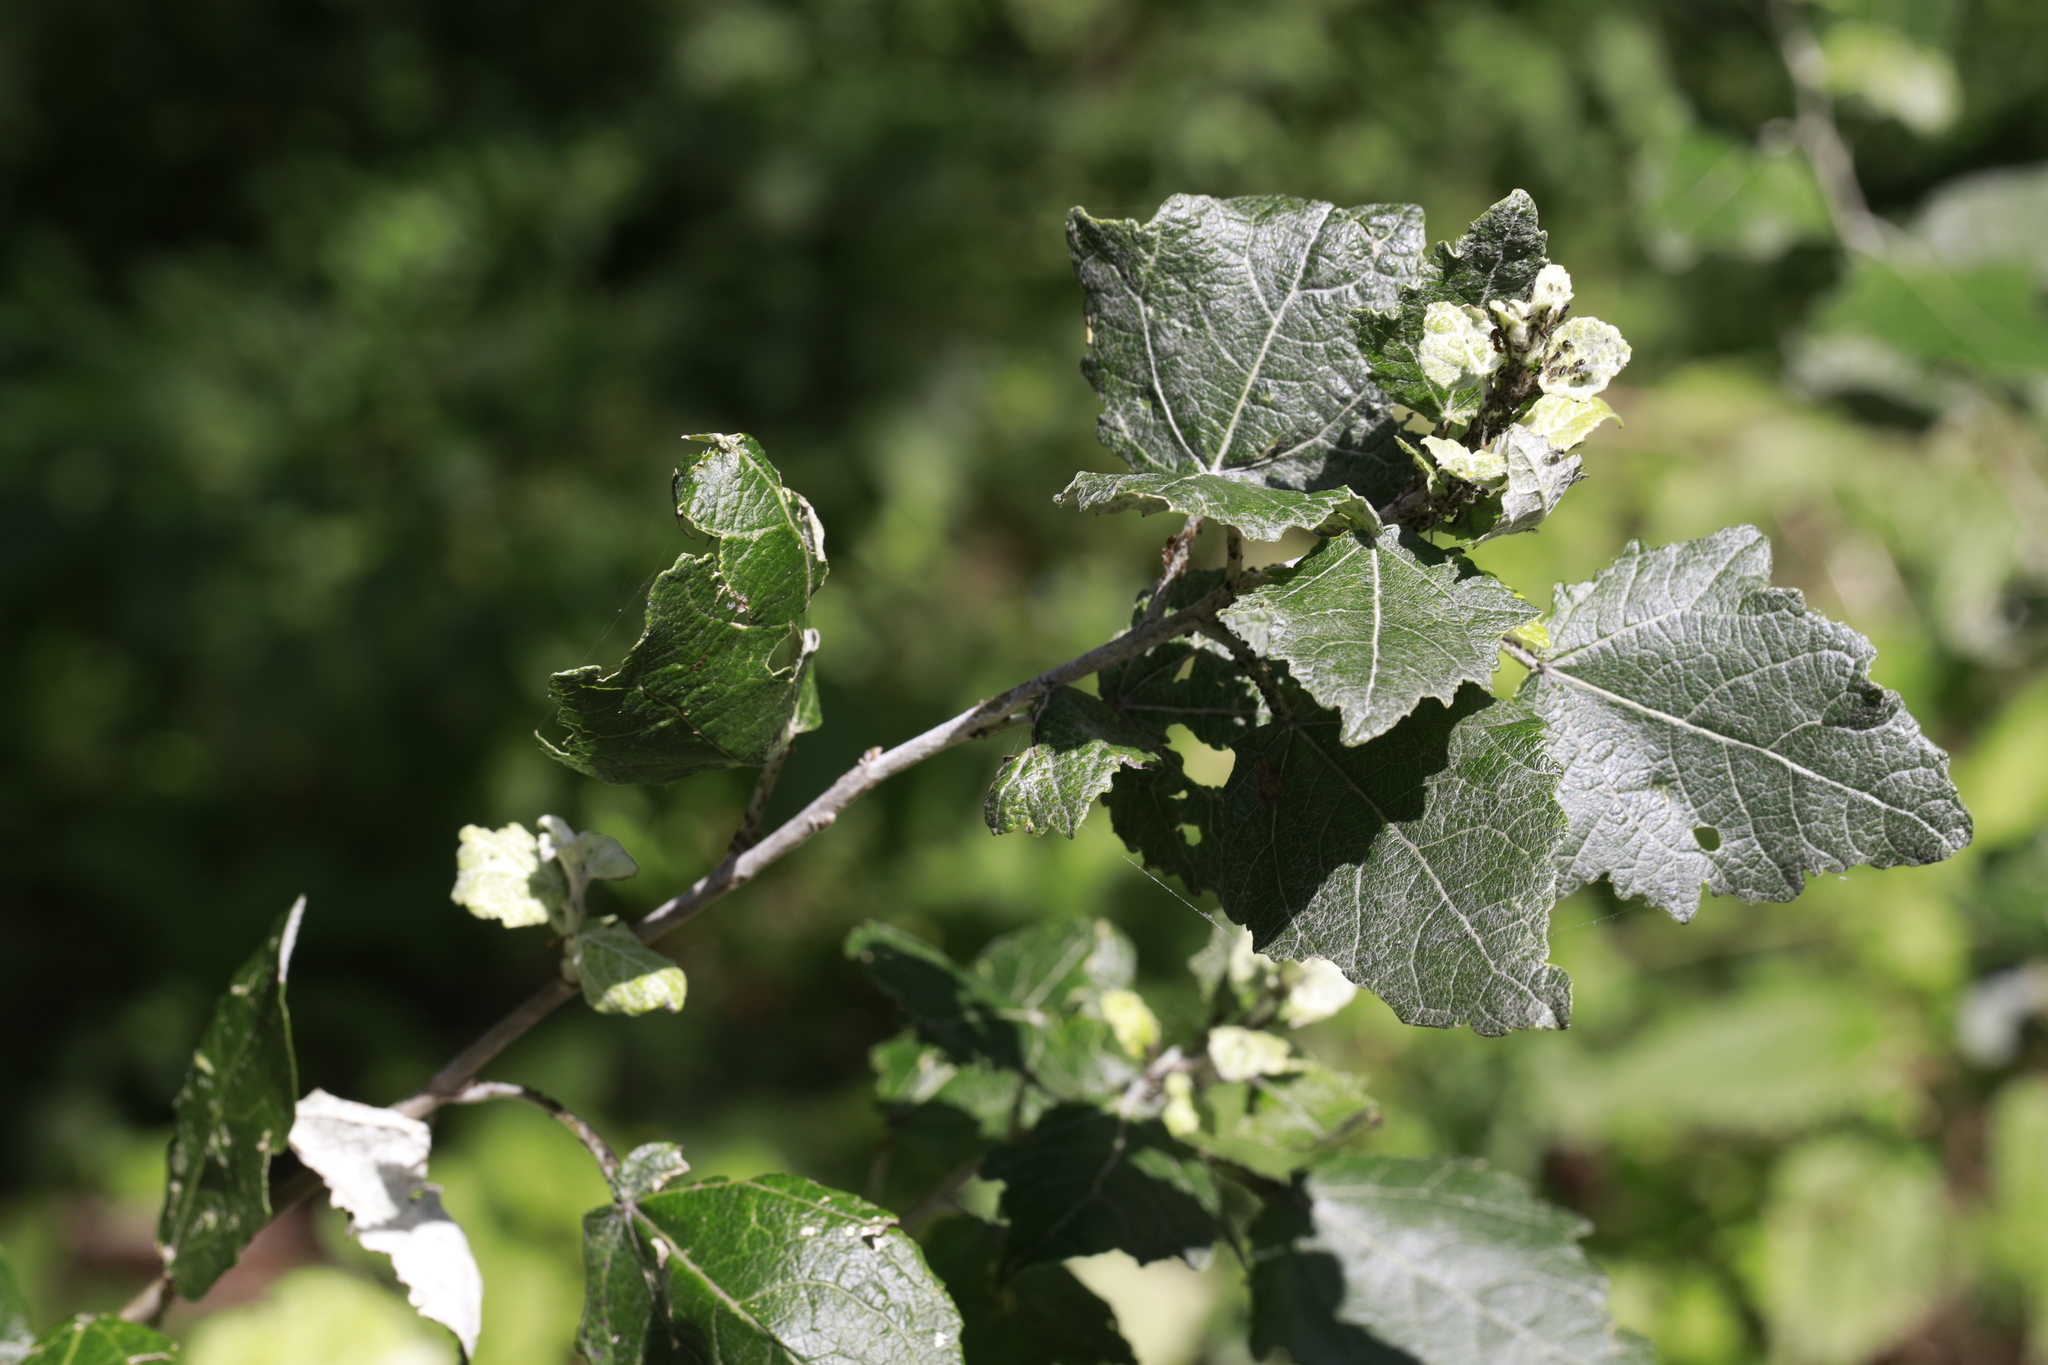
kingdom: Plantae
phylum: Tracheophyta
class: Magnoliopsida
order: Malpighiales
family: Salicaceae
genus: Populus
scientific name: Populus alba
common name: White poplar
